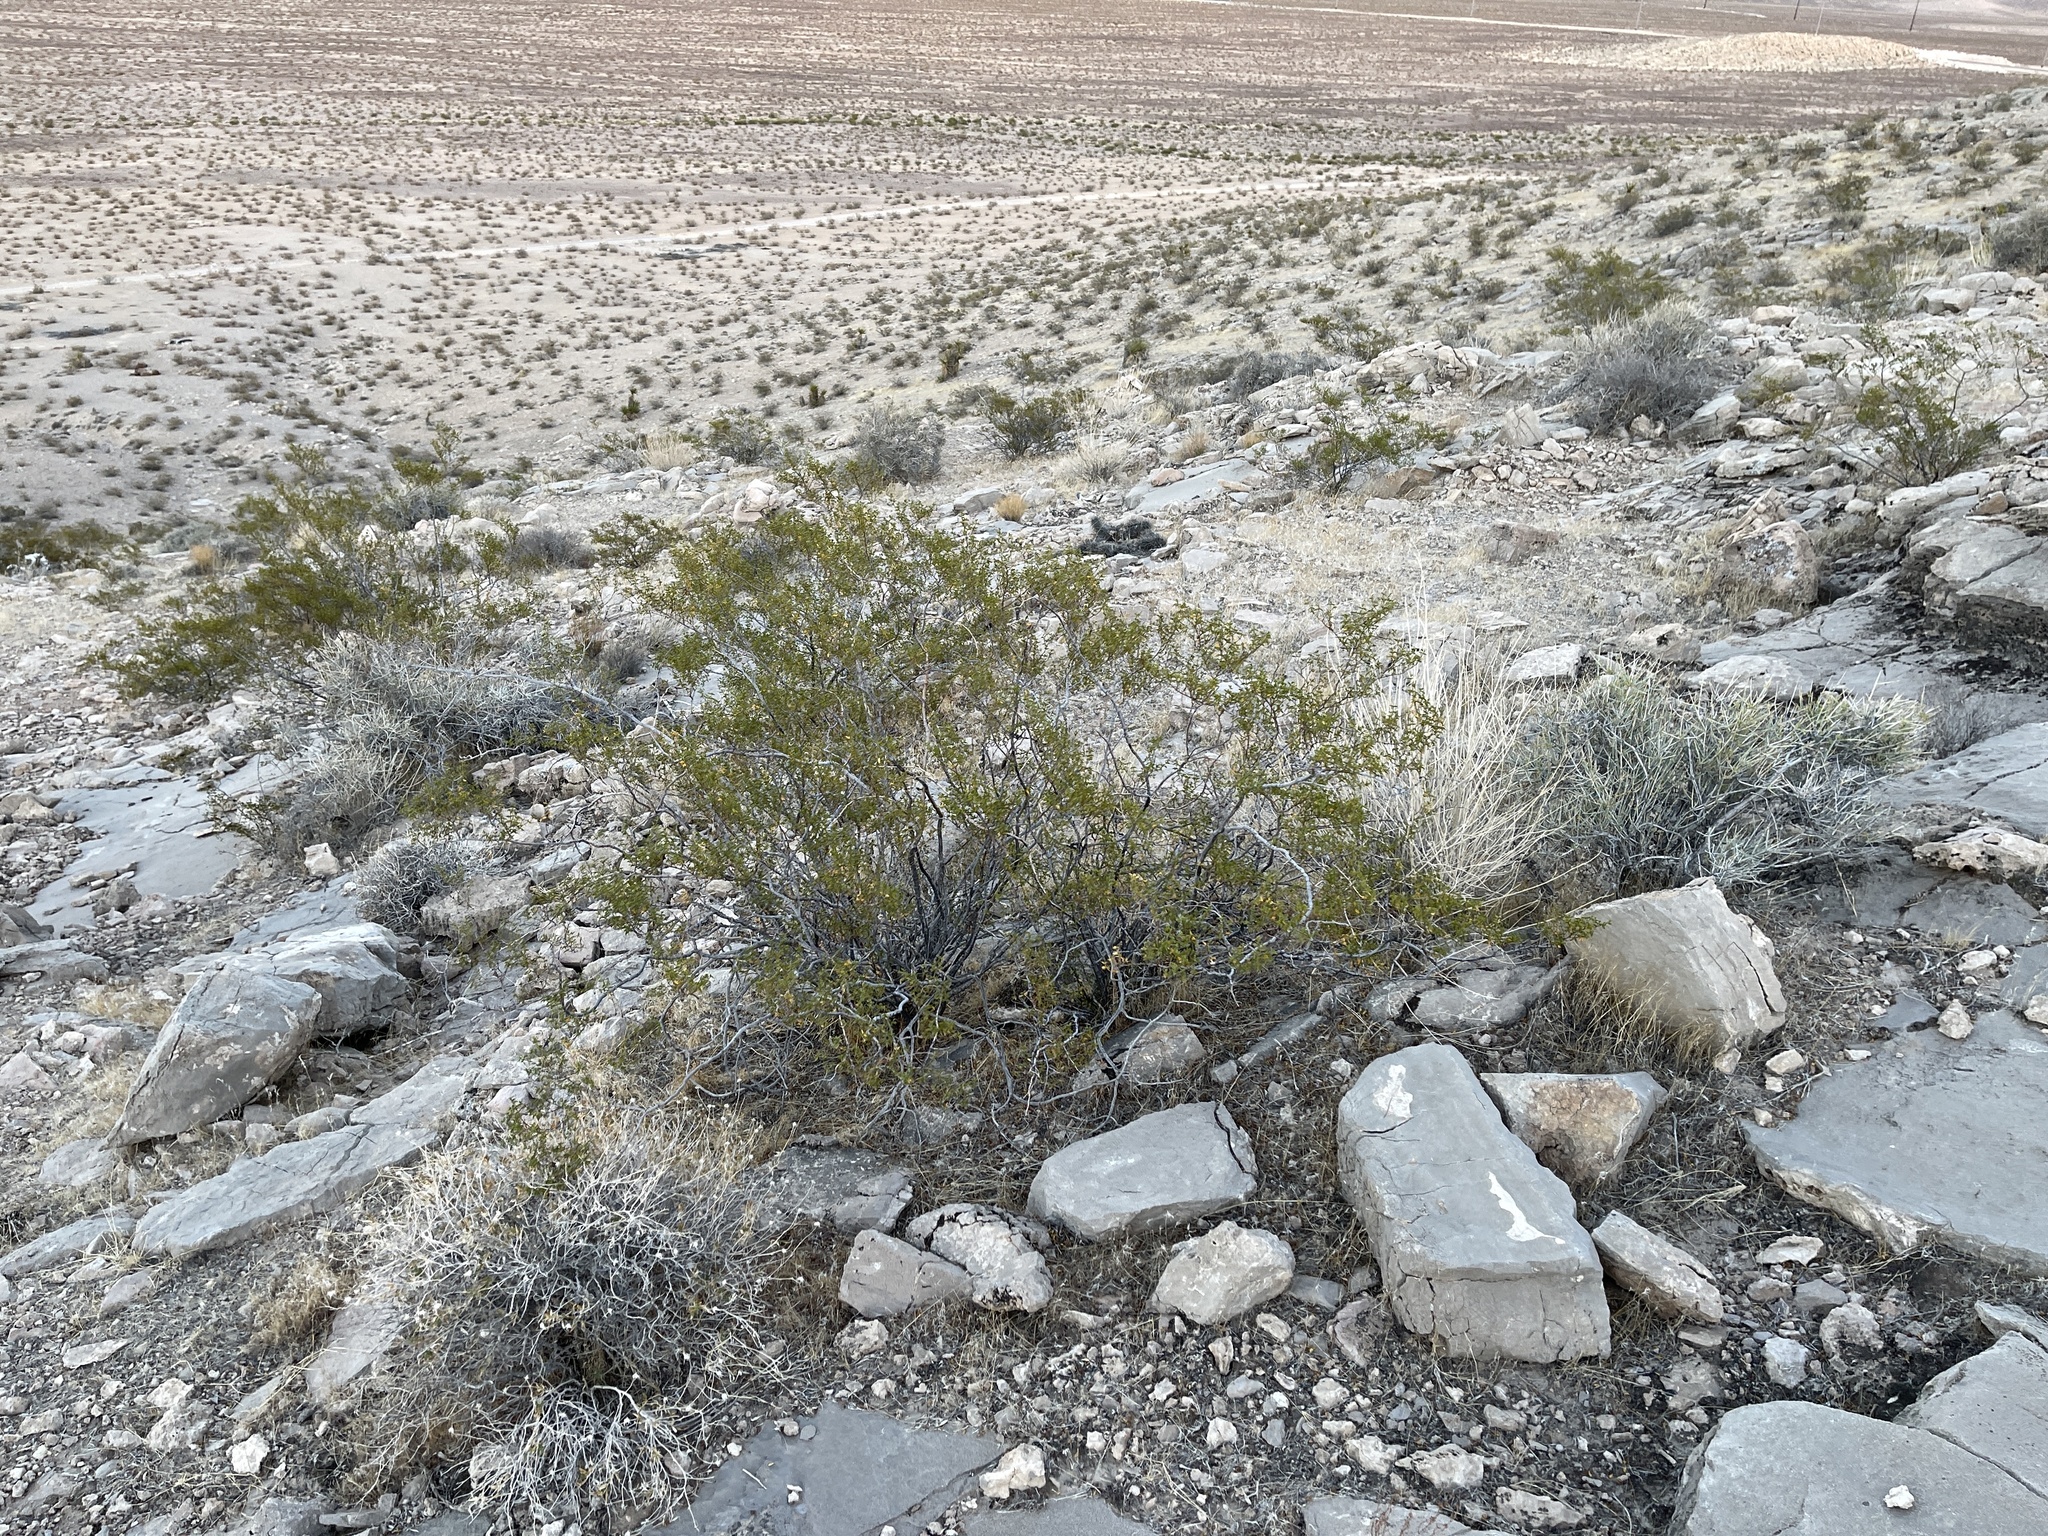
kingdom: Plantae
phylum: Tracheophyta
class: Magnoliopsida
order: Zygophyllales
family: Zygophyllaceae
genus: Larrea
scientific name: Larrea tridentata
